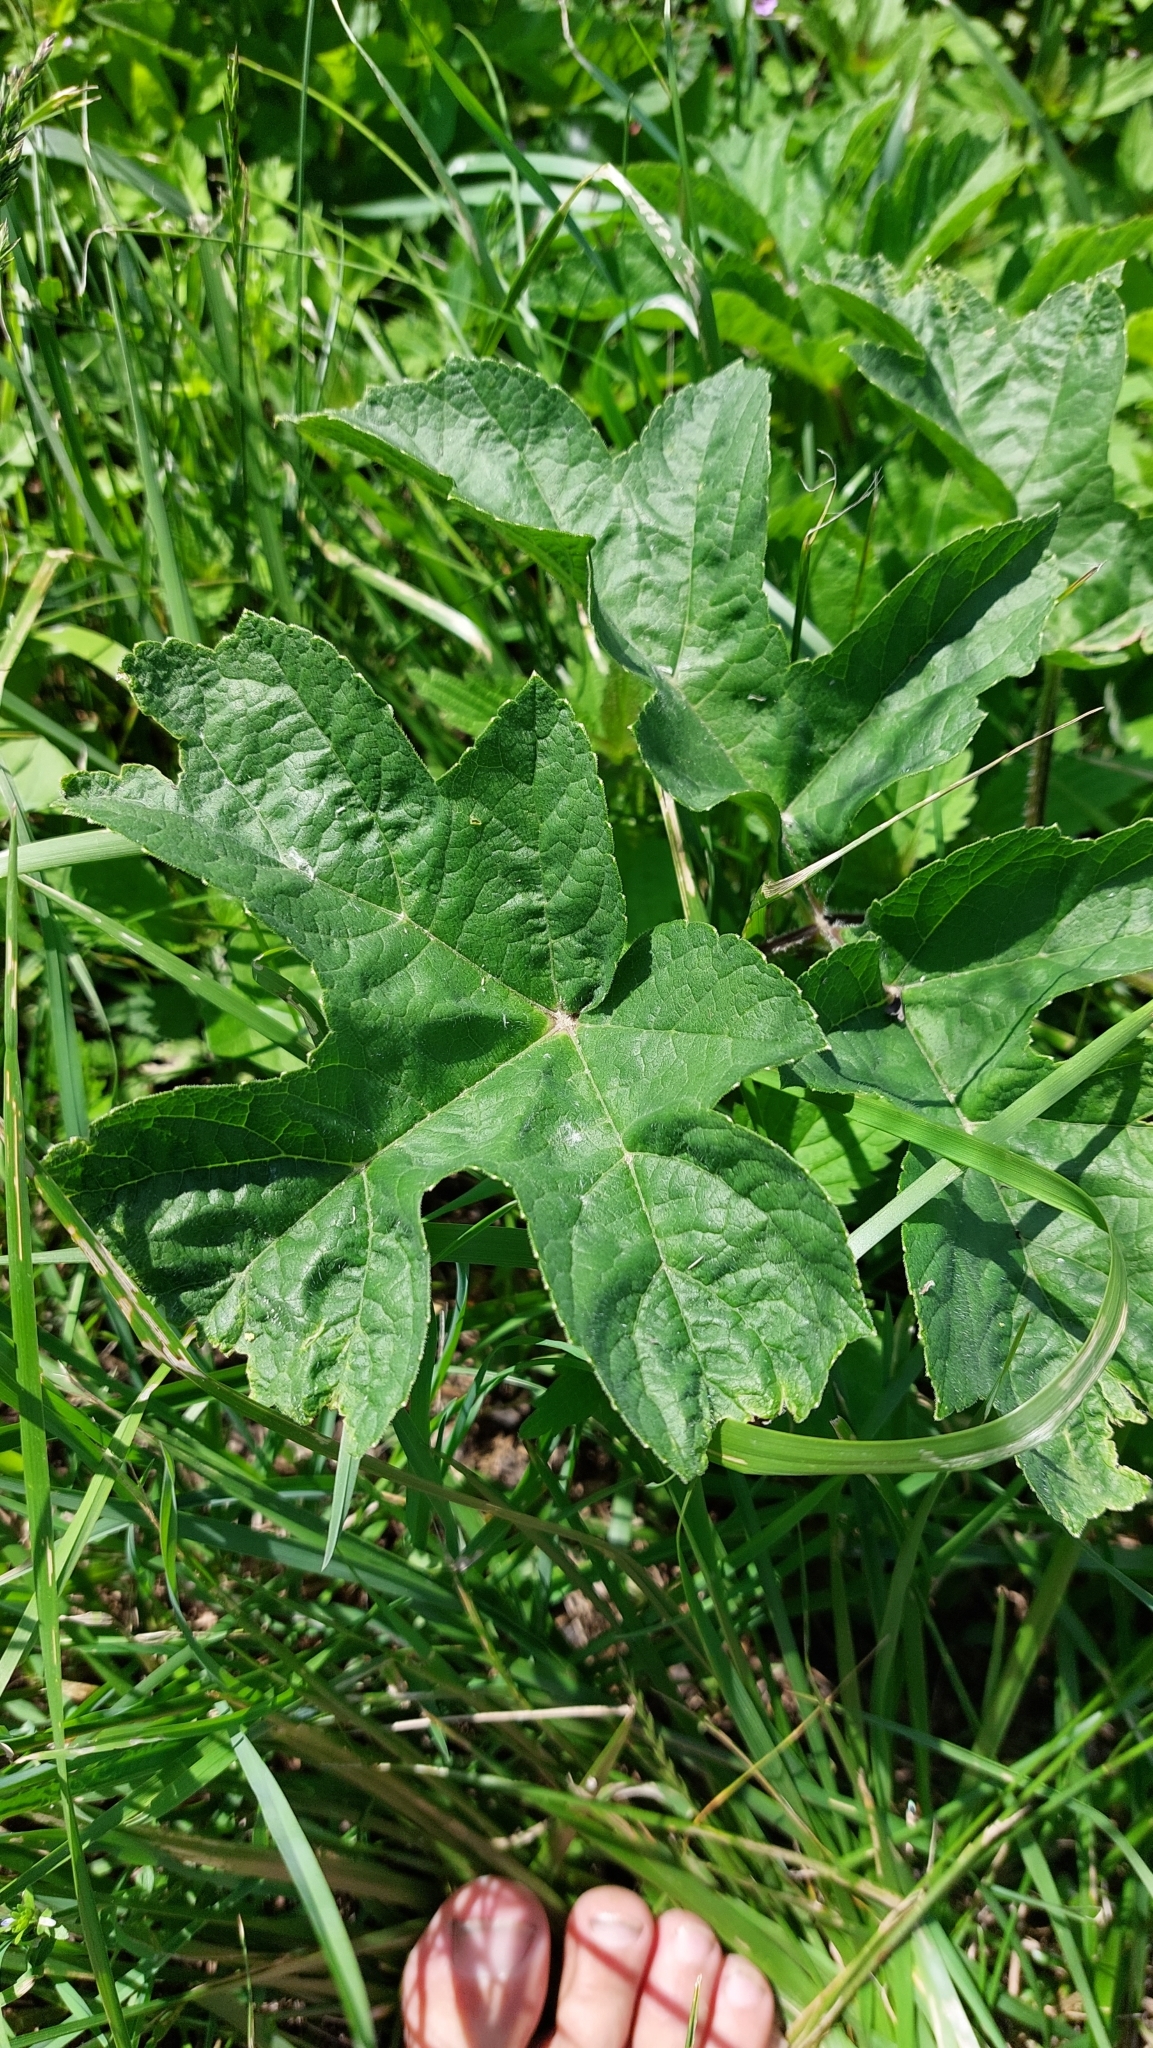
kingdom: Plantae
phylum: Tracheophyta
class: Magnoliopsida
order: Apiales
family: Apiaceae
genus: Heracleum
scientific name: Heracleum sphondylium
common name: Hogweed
